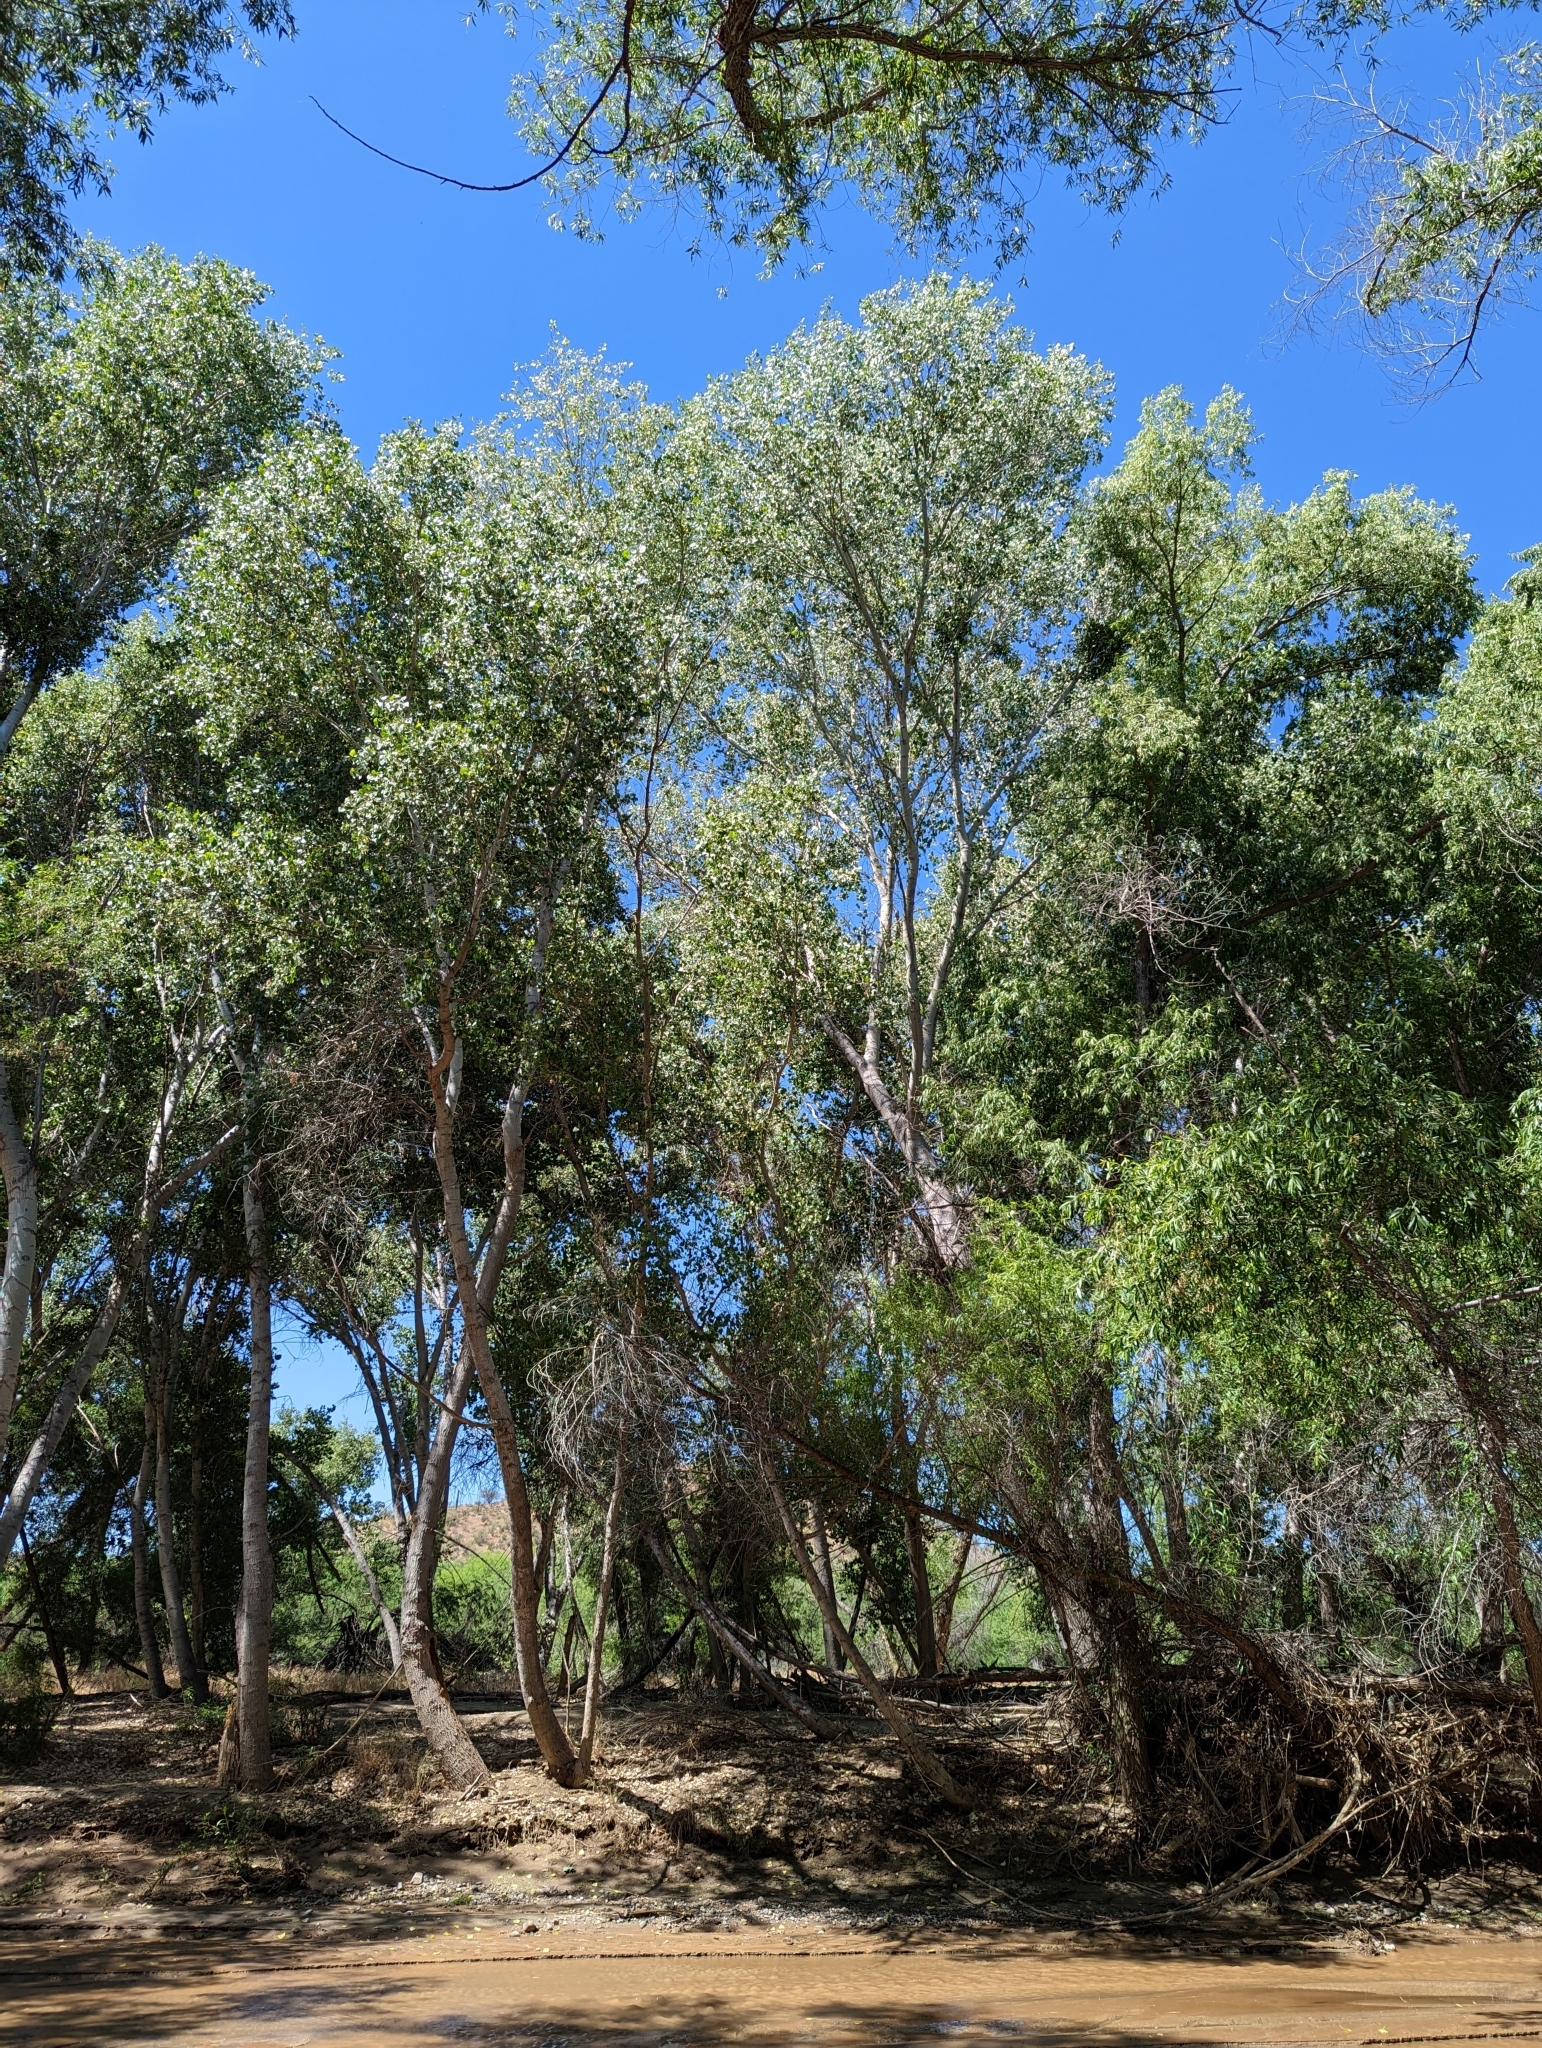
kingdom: Plantae
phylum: Tracheophyta
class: Magnoliopsida
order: Malpighiales
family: Salicaceae
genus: Populus
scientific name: Populus fremontii
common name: Fremont's cottonwood
